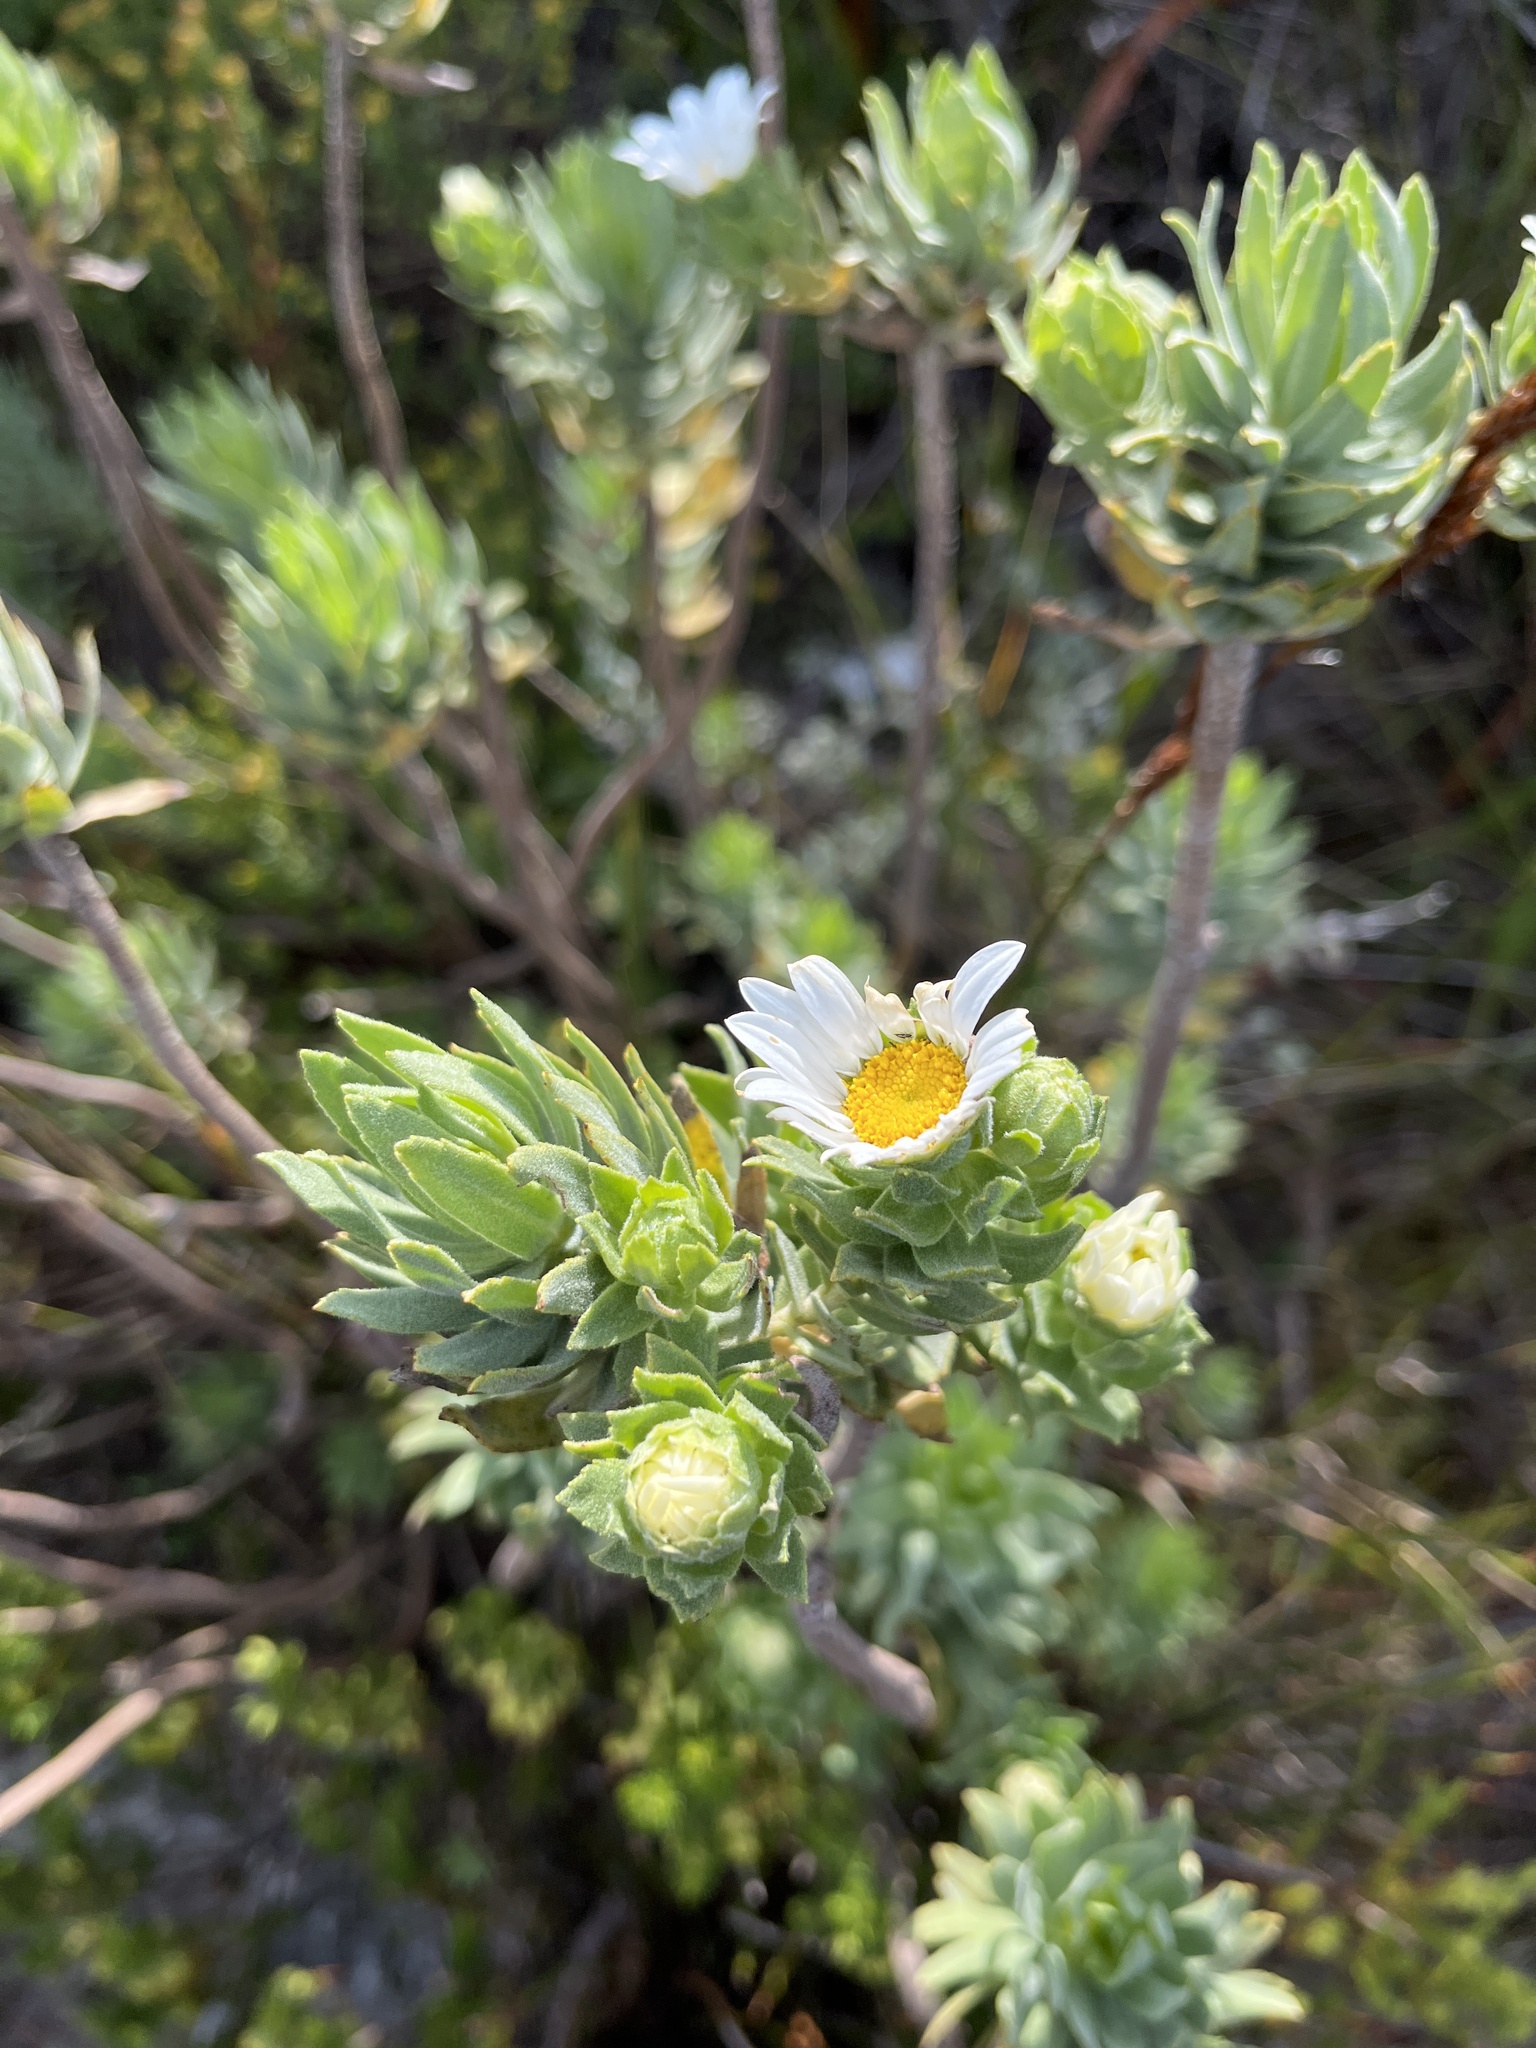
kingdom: Plantae
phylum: Tracheophyta
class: Magnoliopsida
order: Asterales
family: Asteraceae
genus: Osmitopsis
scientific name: Osmitopsis asteriscoides
